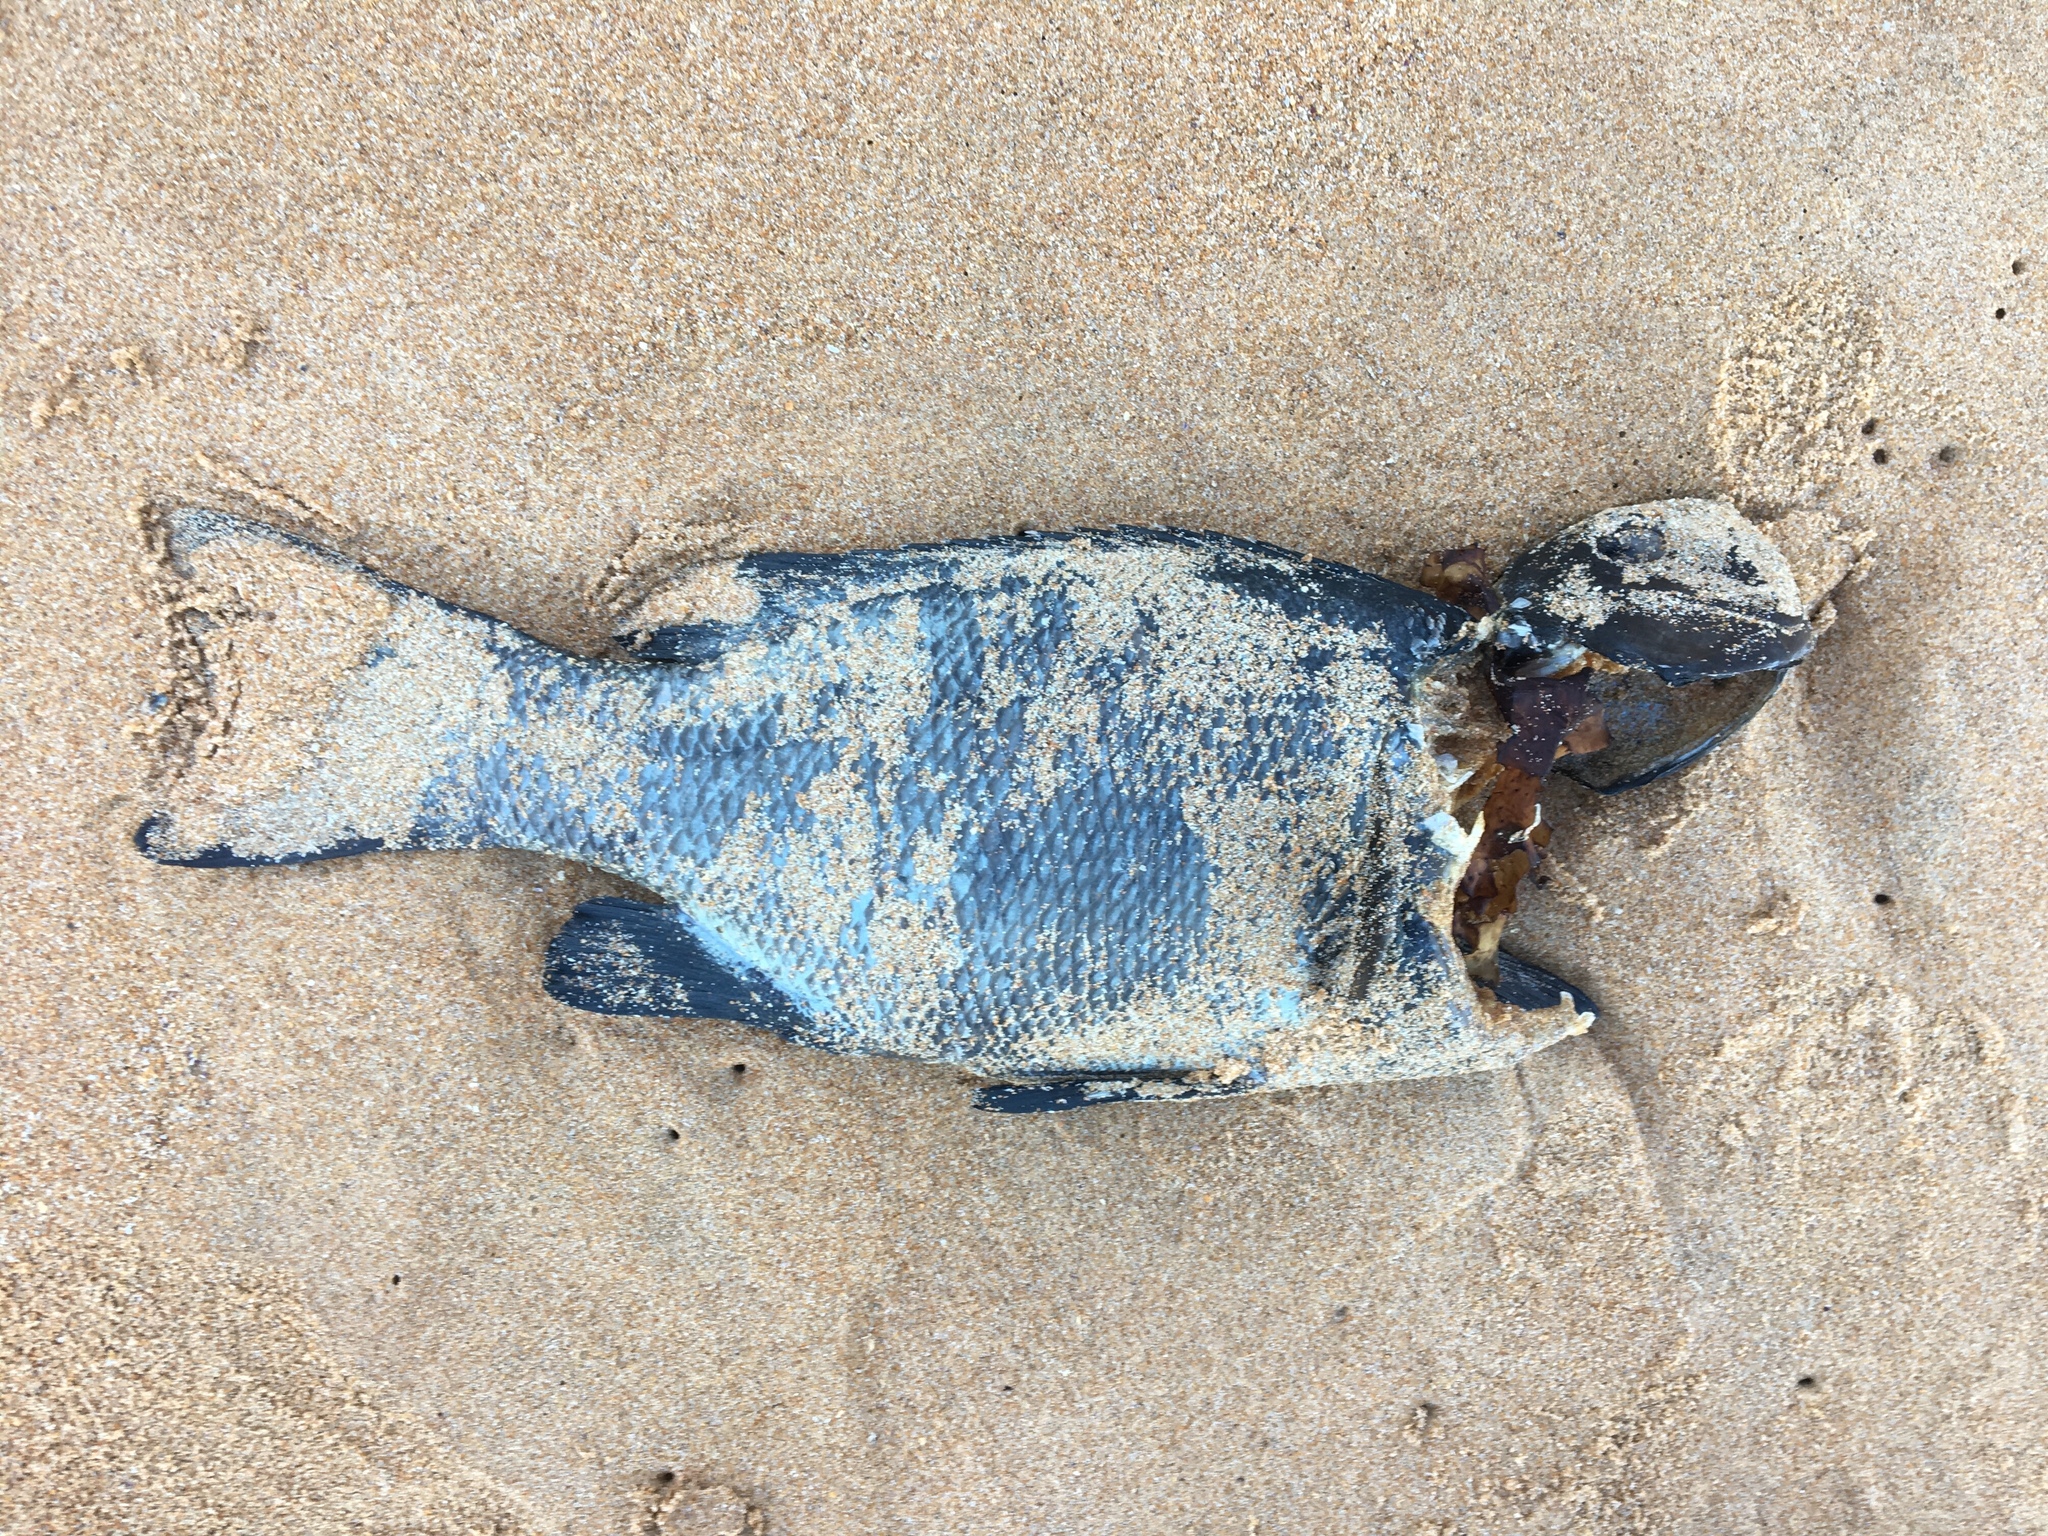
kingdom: Animalia
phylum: Chordata
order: Perciformes
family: Kyphosidae
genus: Girella
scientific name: Girella elevata
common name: Black bream
